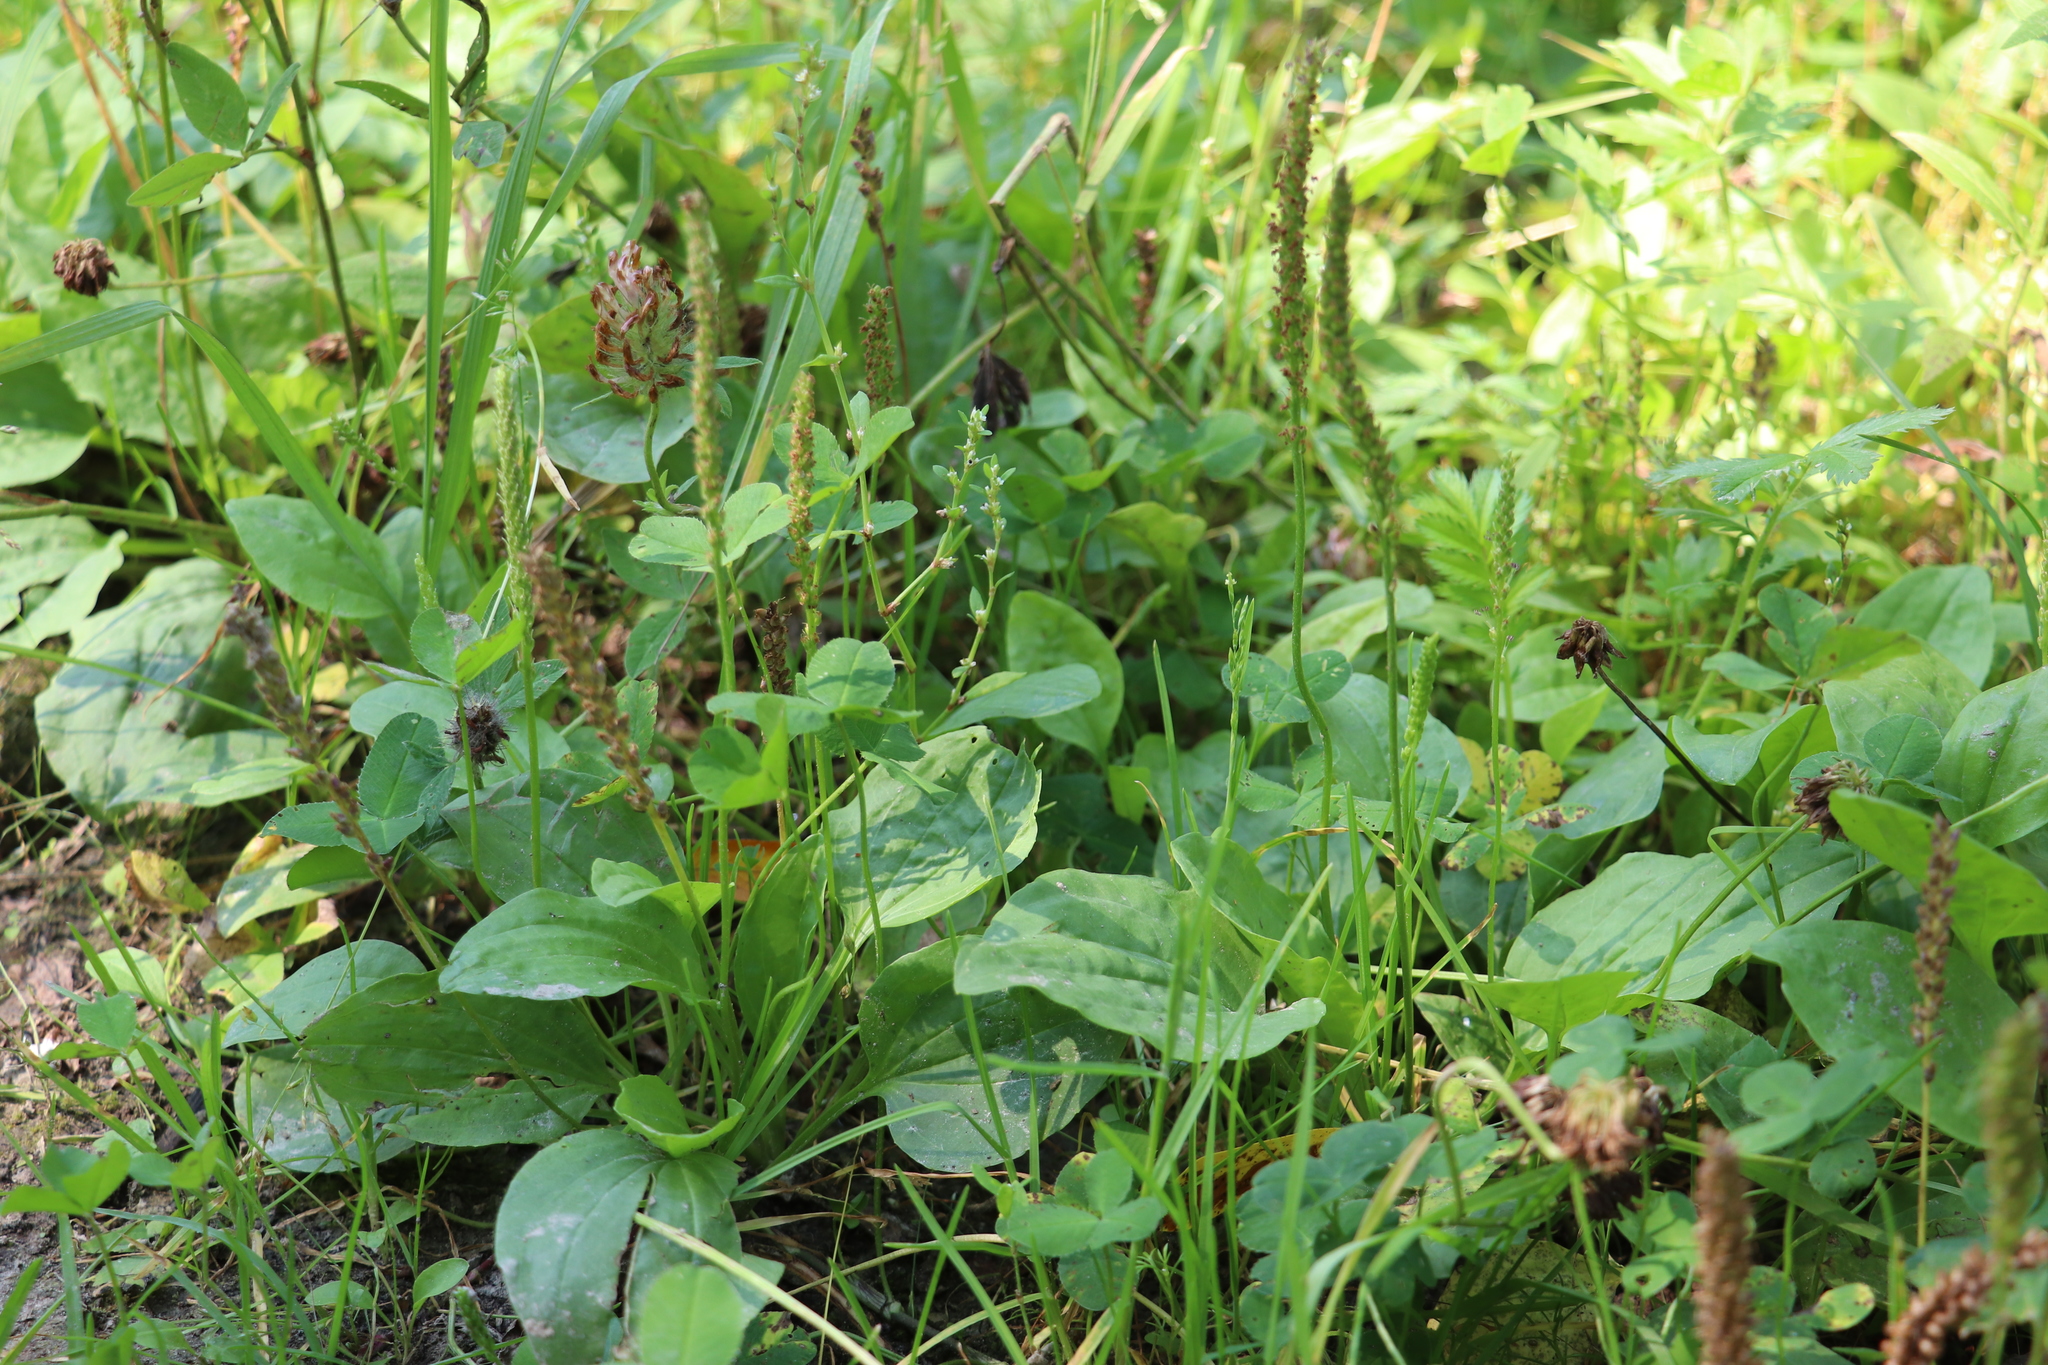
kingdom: Plantae
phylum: Tracheophyta
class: Magnoliopsida
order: Lamiales
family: Plantaginaceae
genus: Plantago
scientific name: Plantago major
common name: Common plantain
